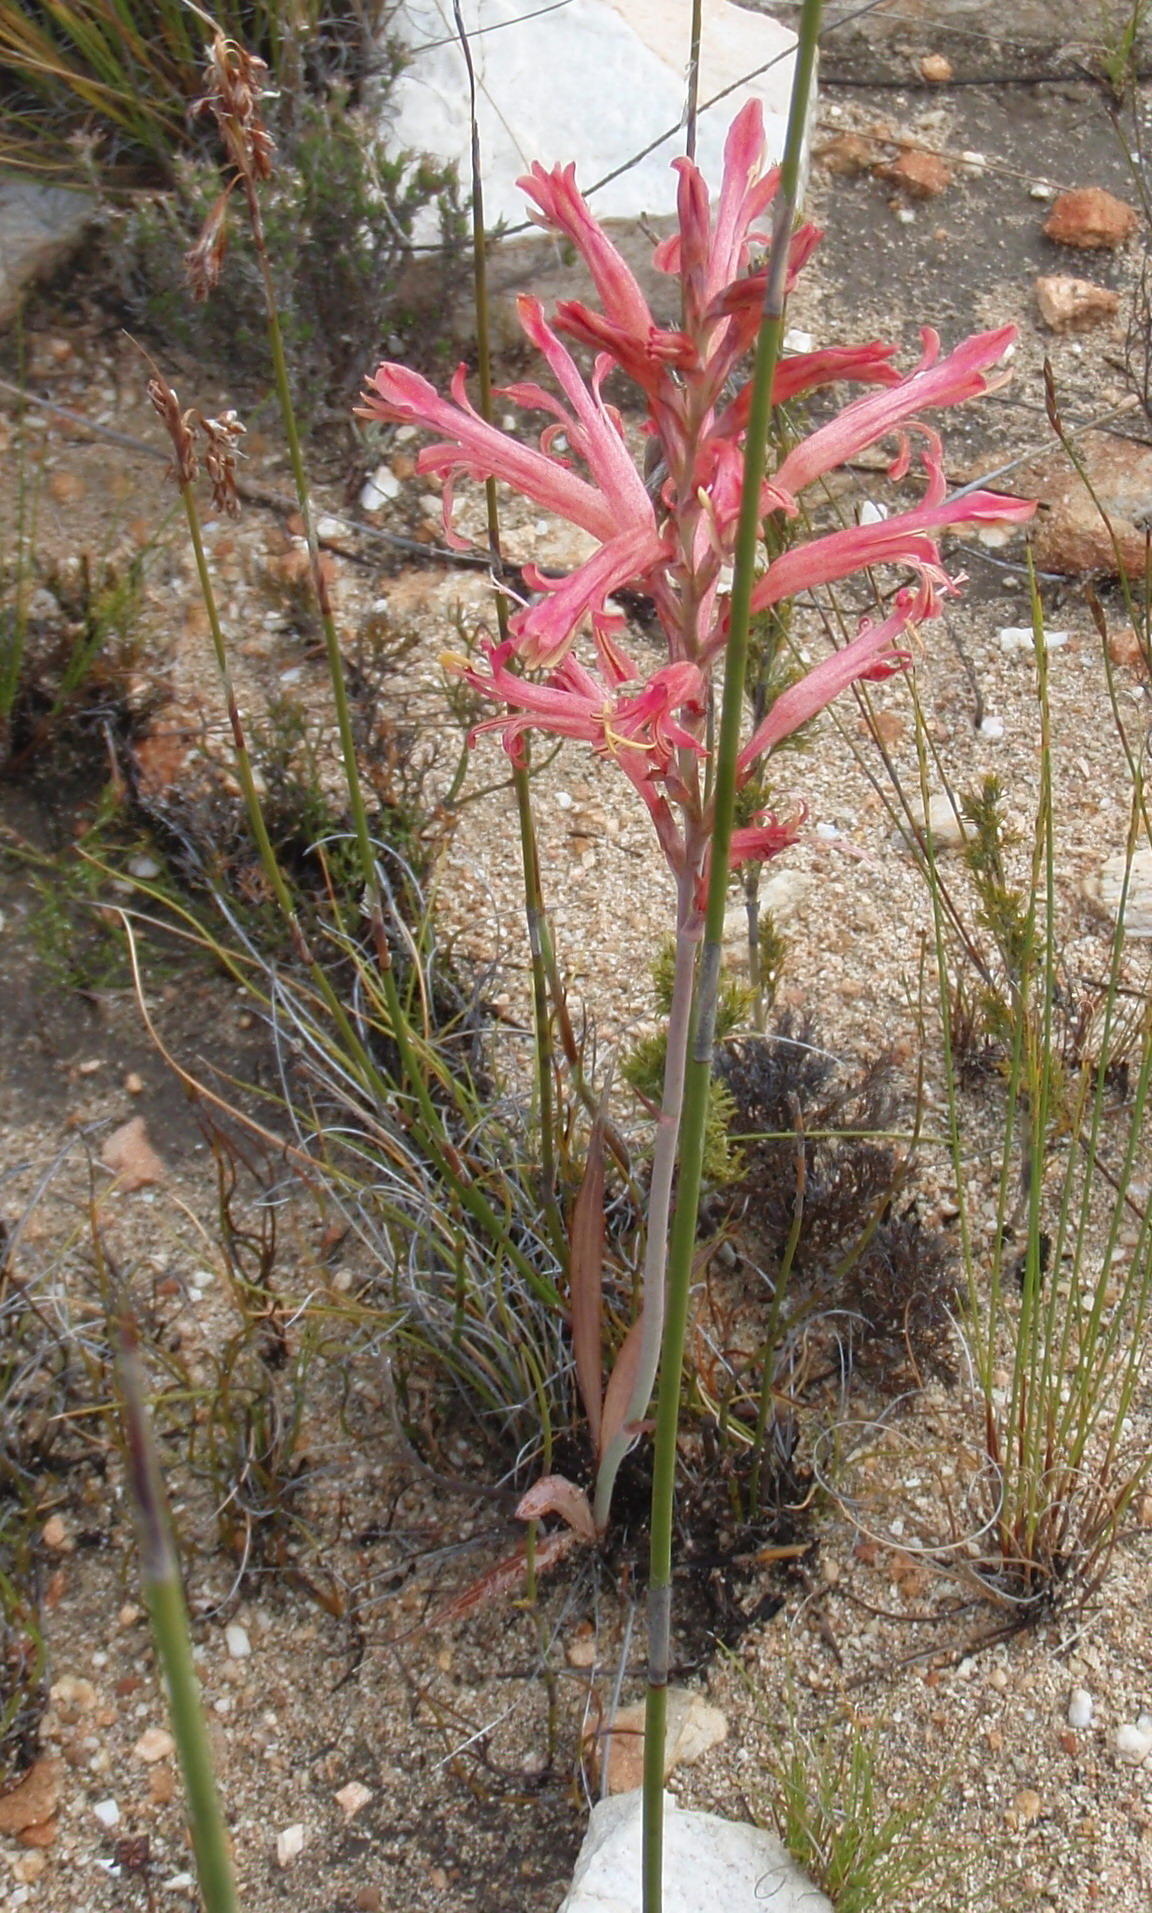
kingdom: Plantae
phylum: Tracheophyta
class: Liliopsida
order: Asparagales
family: Iridaceae
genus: Tritoniopsis
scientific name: Tritoniopsis antholyza
